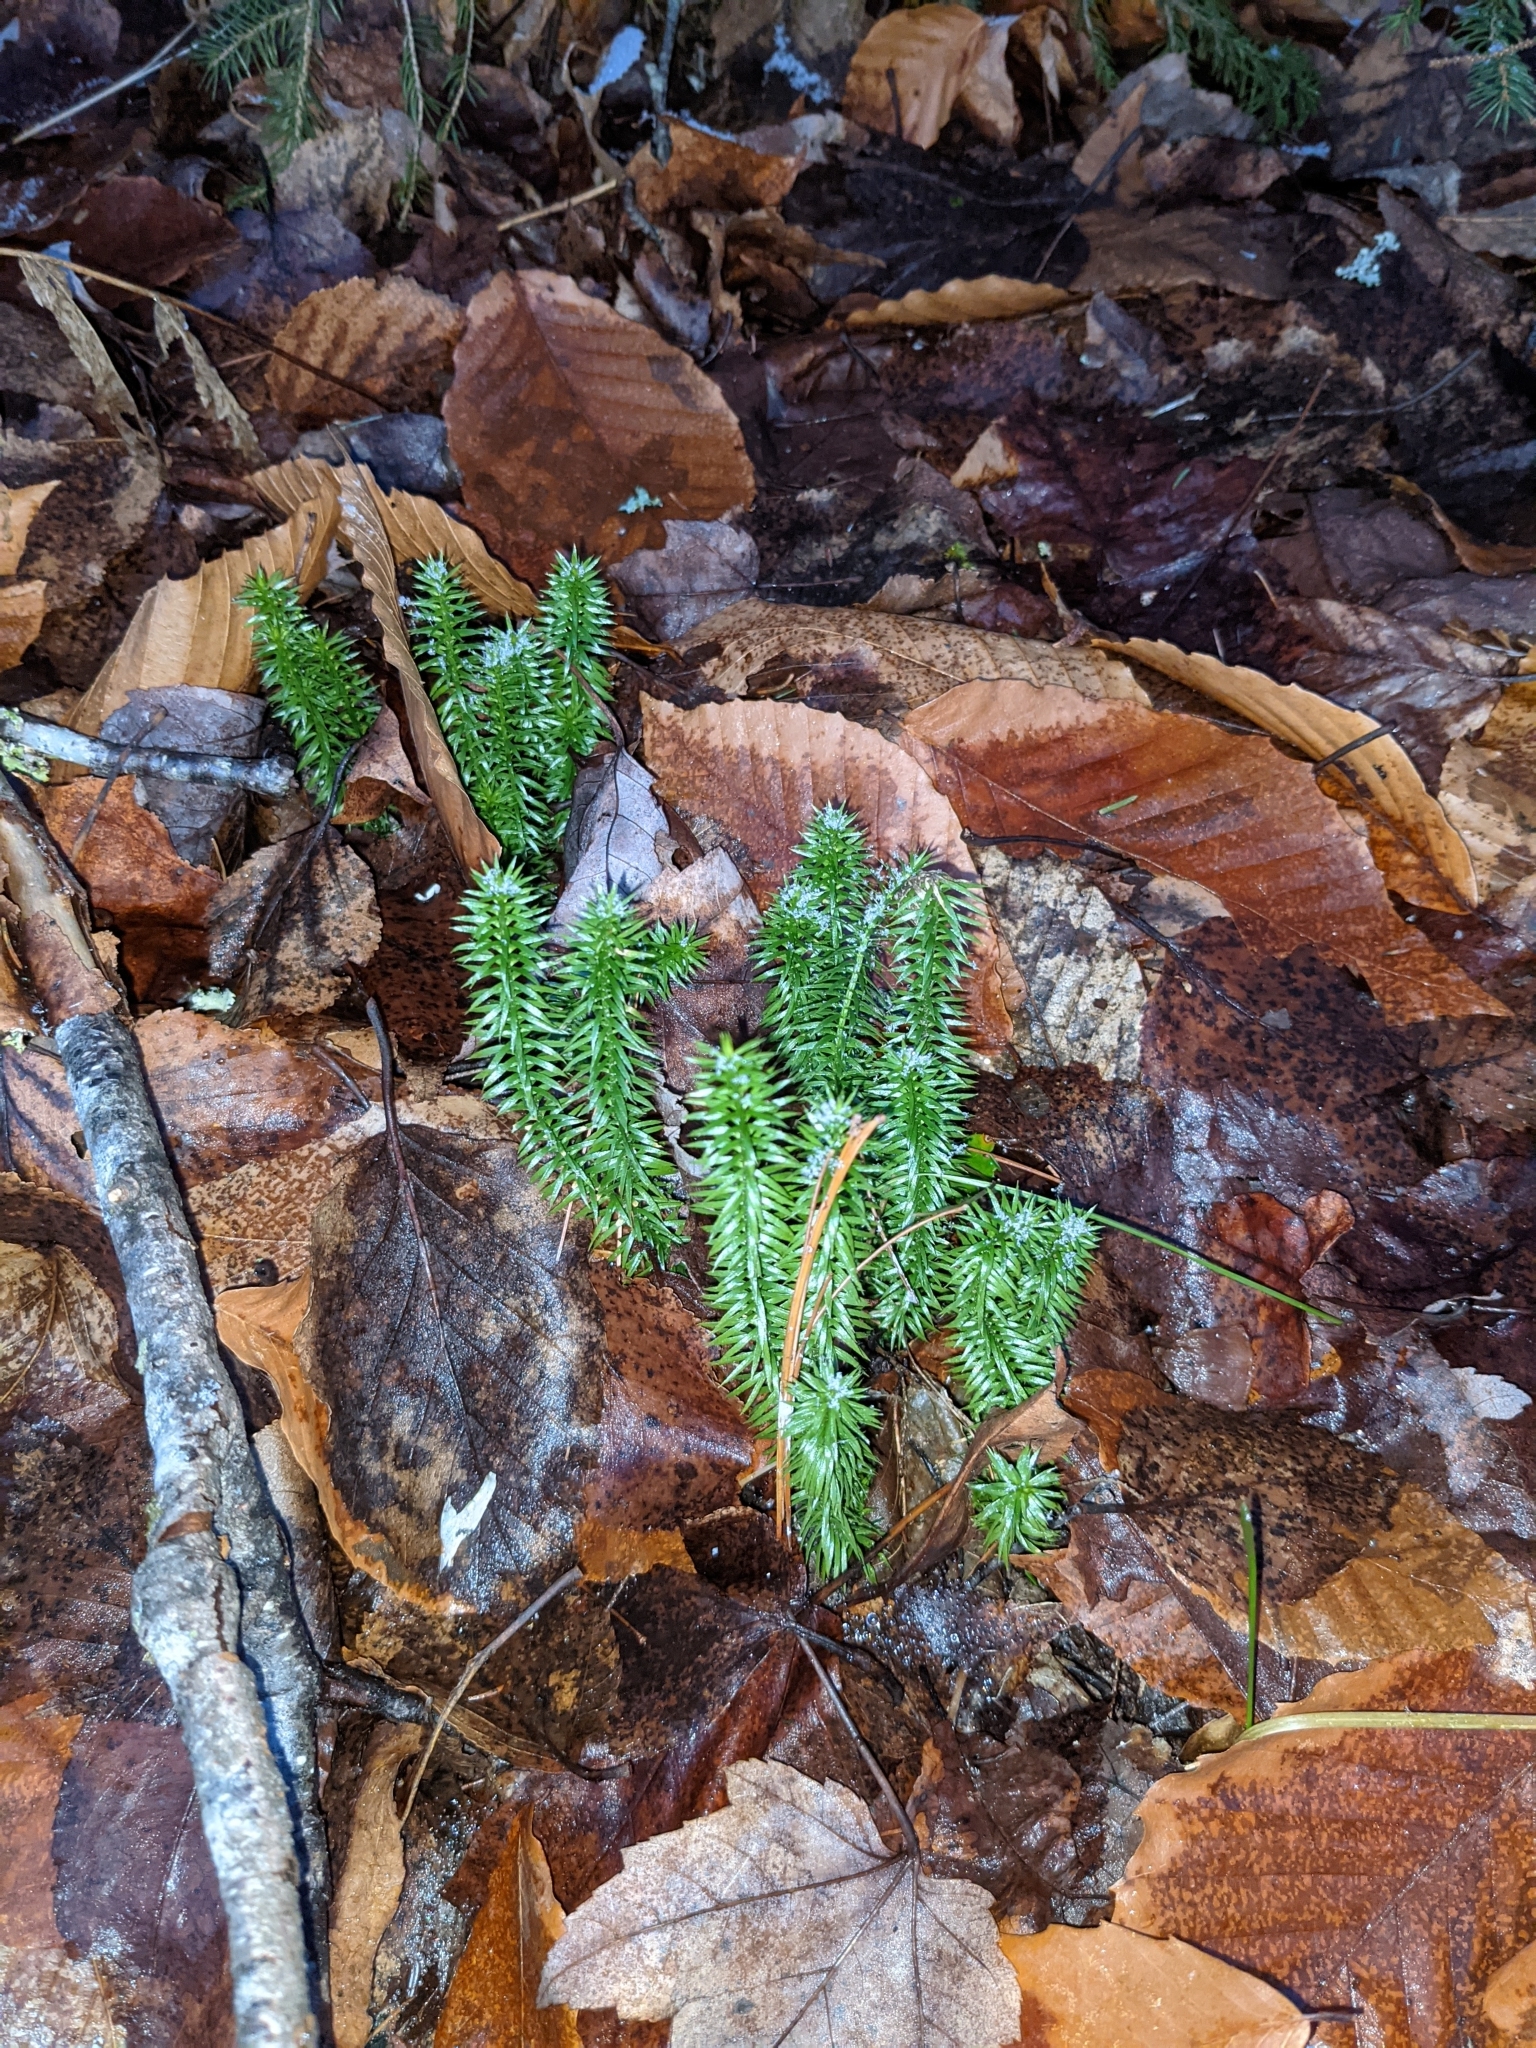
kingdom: Plantae
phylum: Tracheophyta
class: Lycopodiopsida
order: Lycopodiales
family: Lycopodiaceae
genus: Spinulum
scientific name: Spinulum annotinum
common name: Interrupted club-moss
